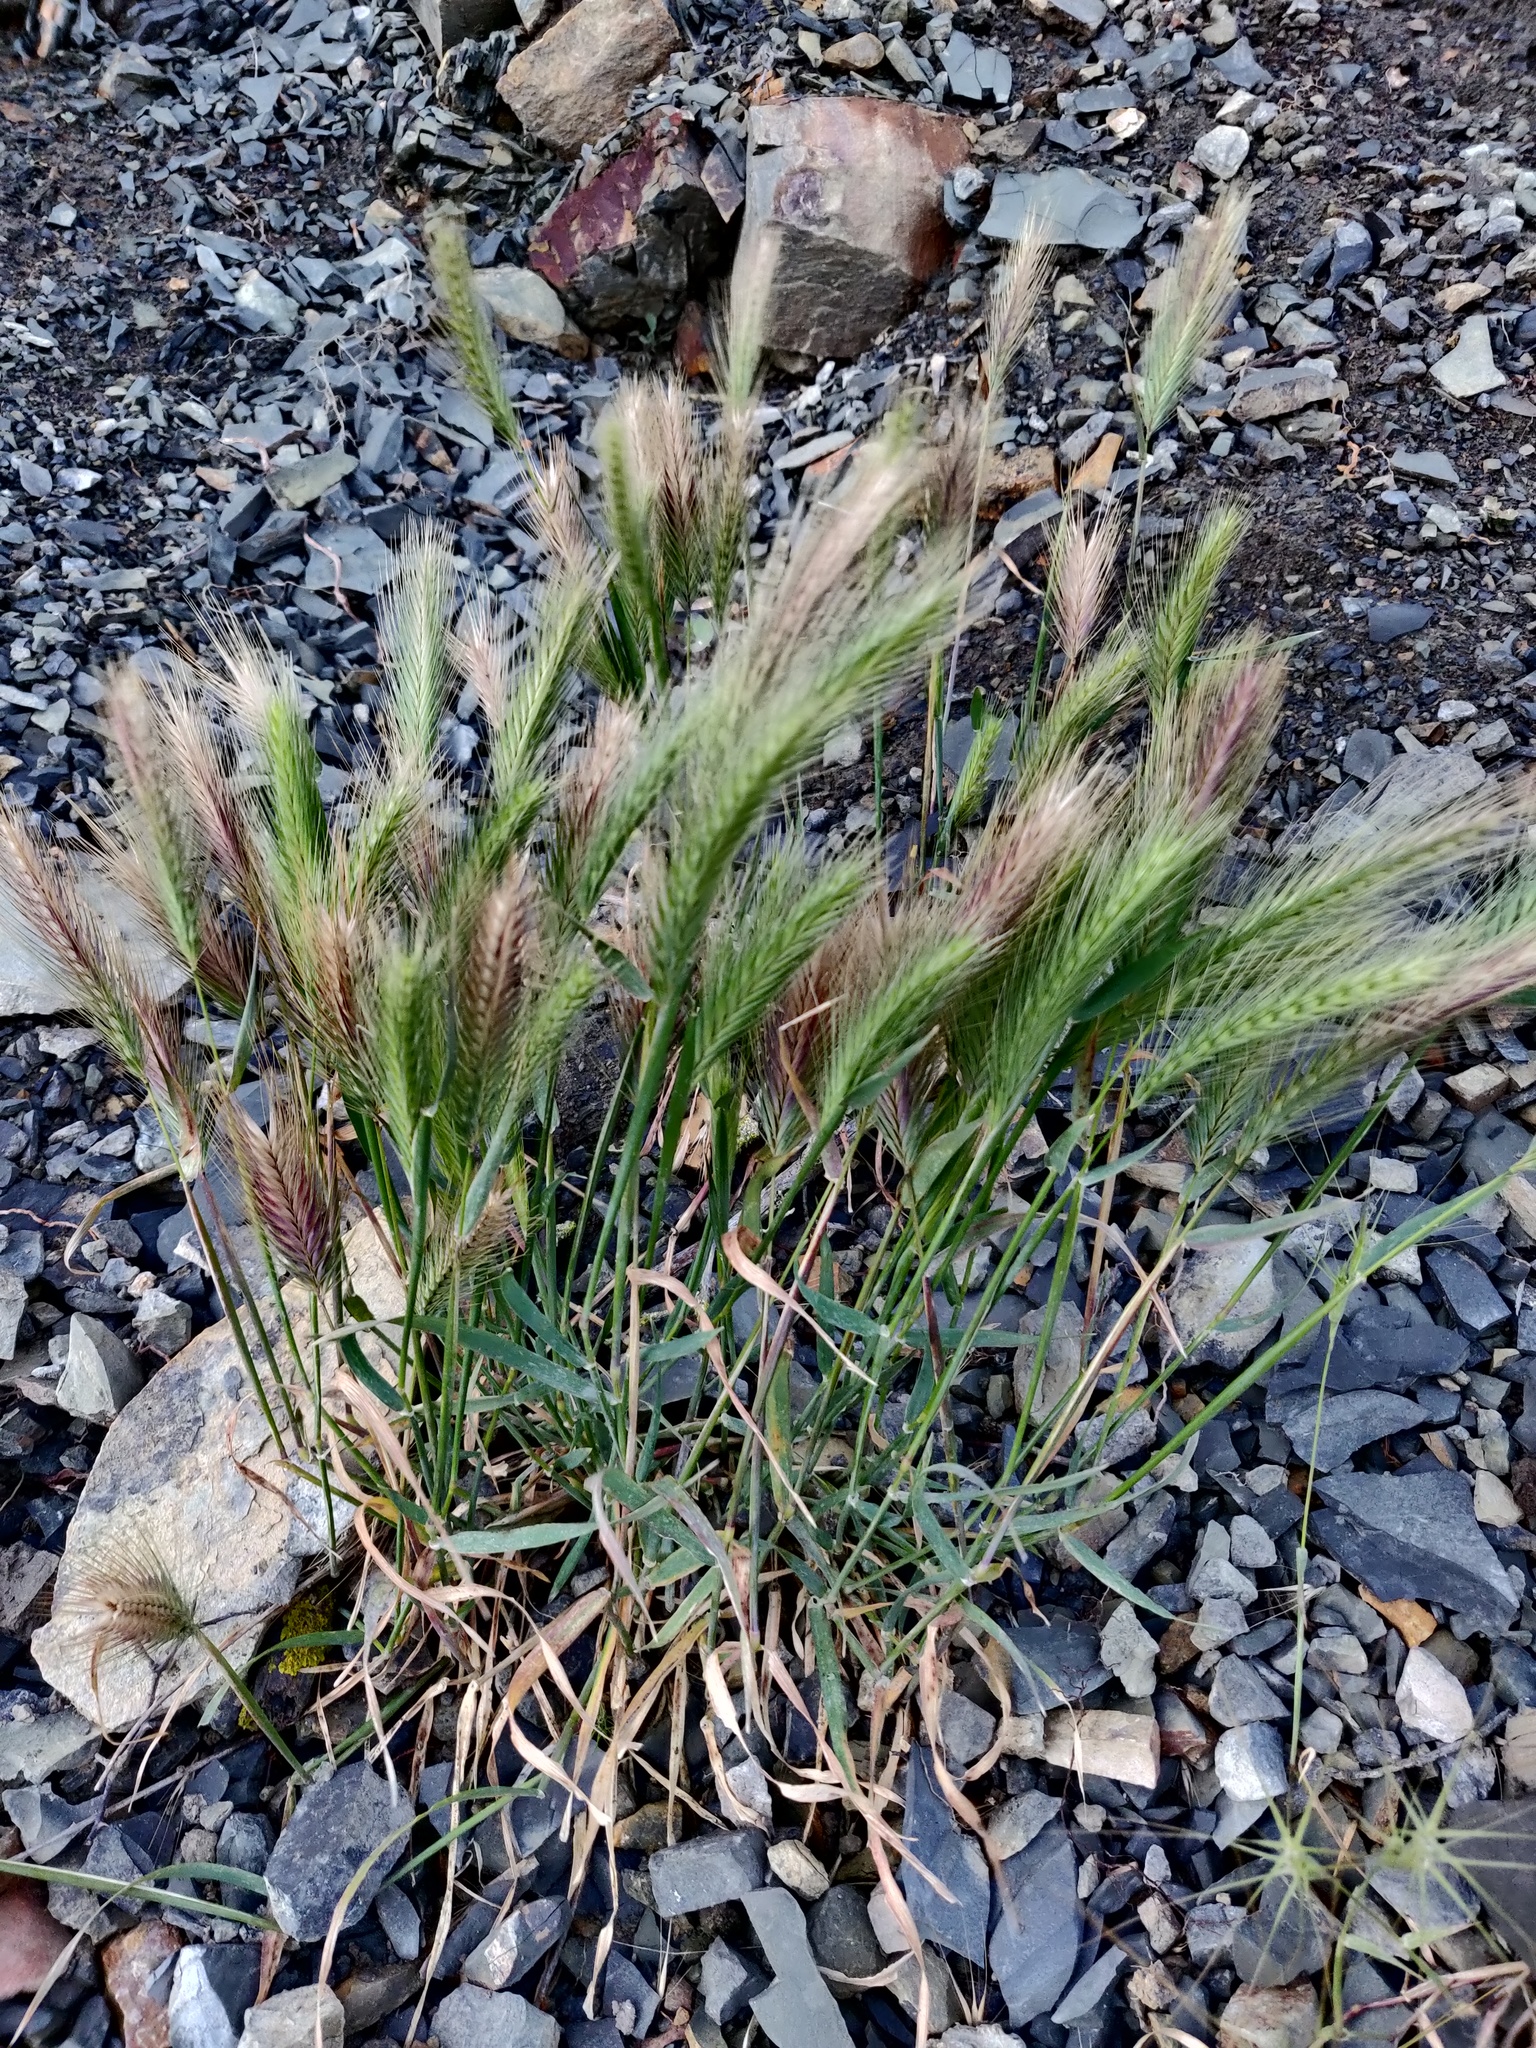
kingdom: Plantae
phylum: Tracheophyta
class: Liliopsida
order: Poales
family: Poaceae
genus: Hordeum
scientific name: Hordeum murinum
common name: Wall barley
